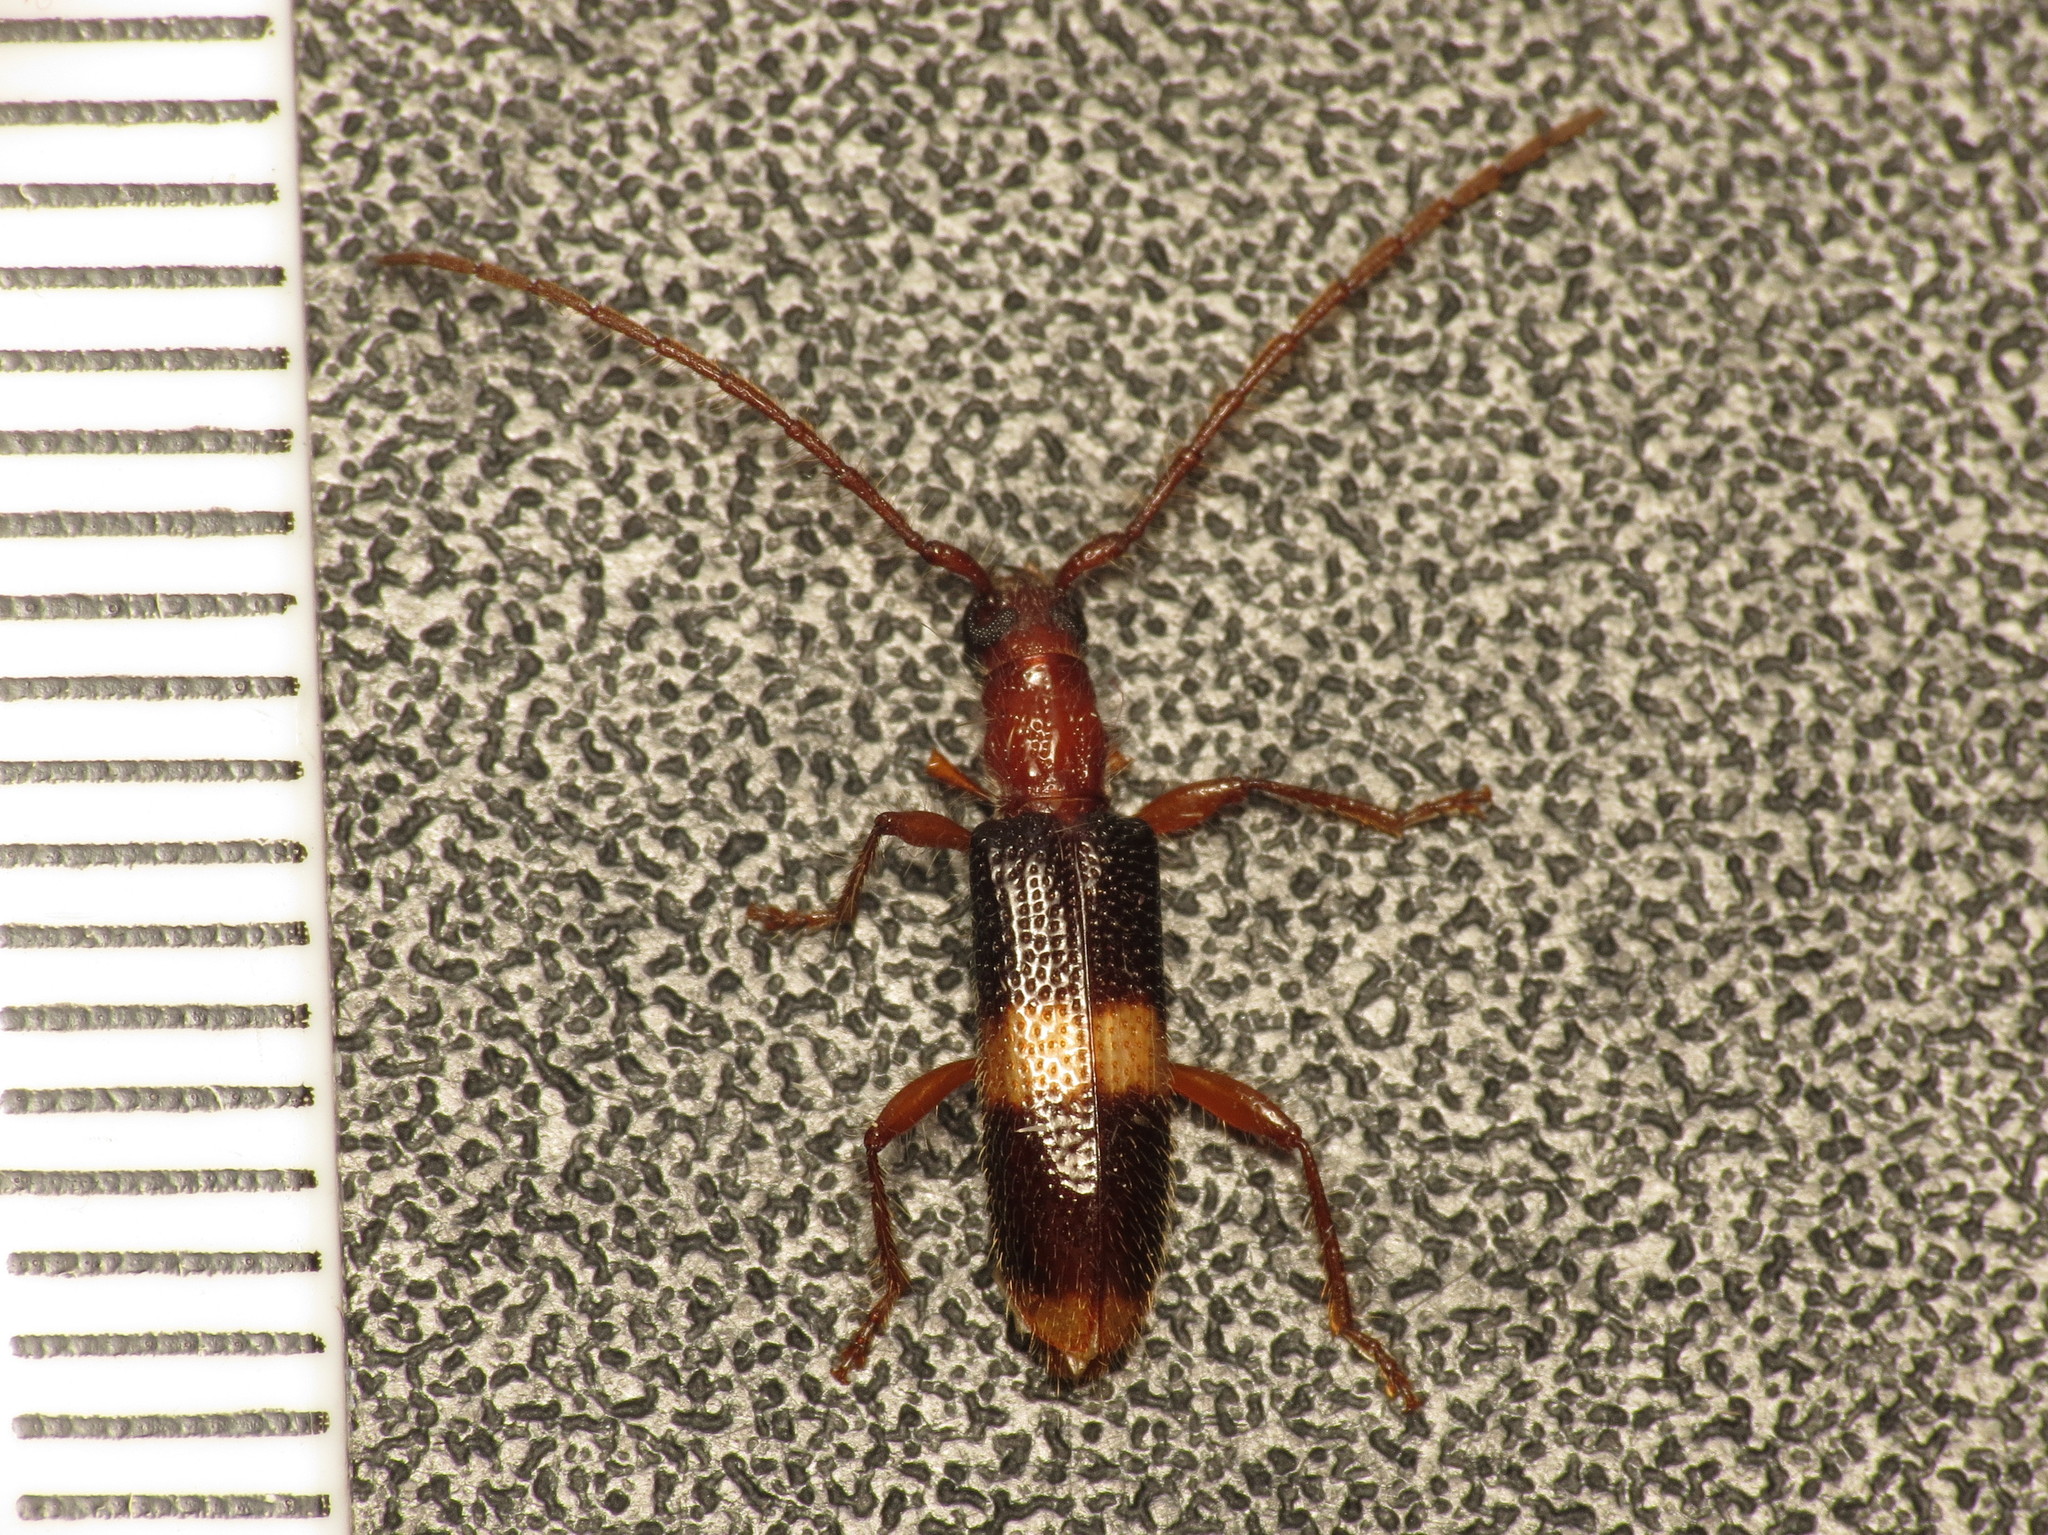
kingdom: Animalia
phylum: Arthropoda
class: Insecta
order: Coleoptera
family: Cerambycidae
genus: Atesta
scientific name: Atesta bifasciata
